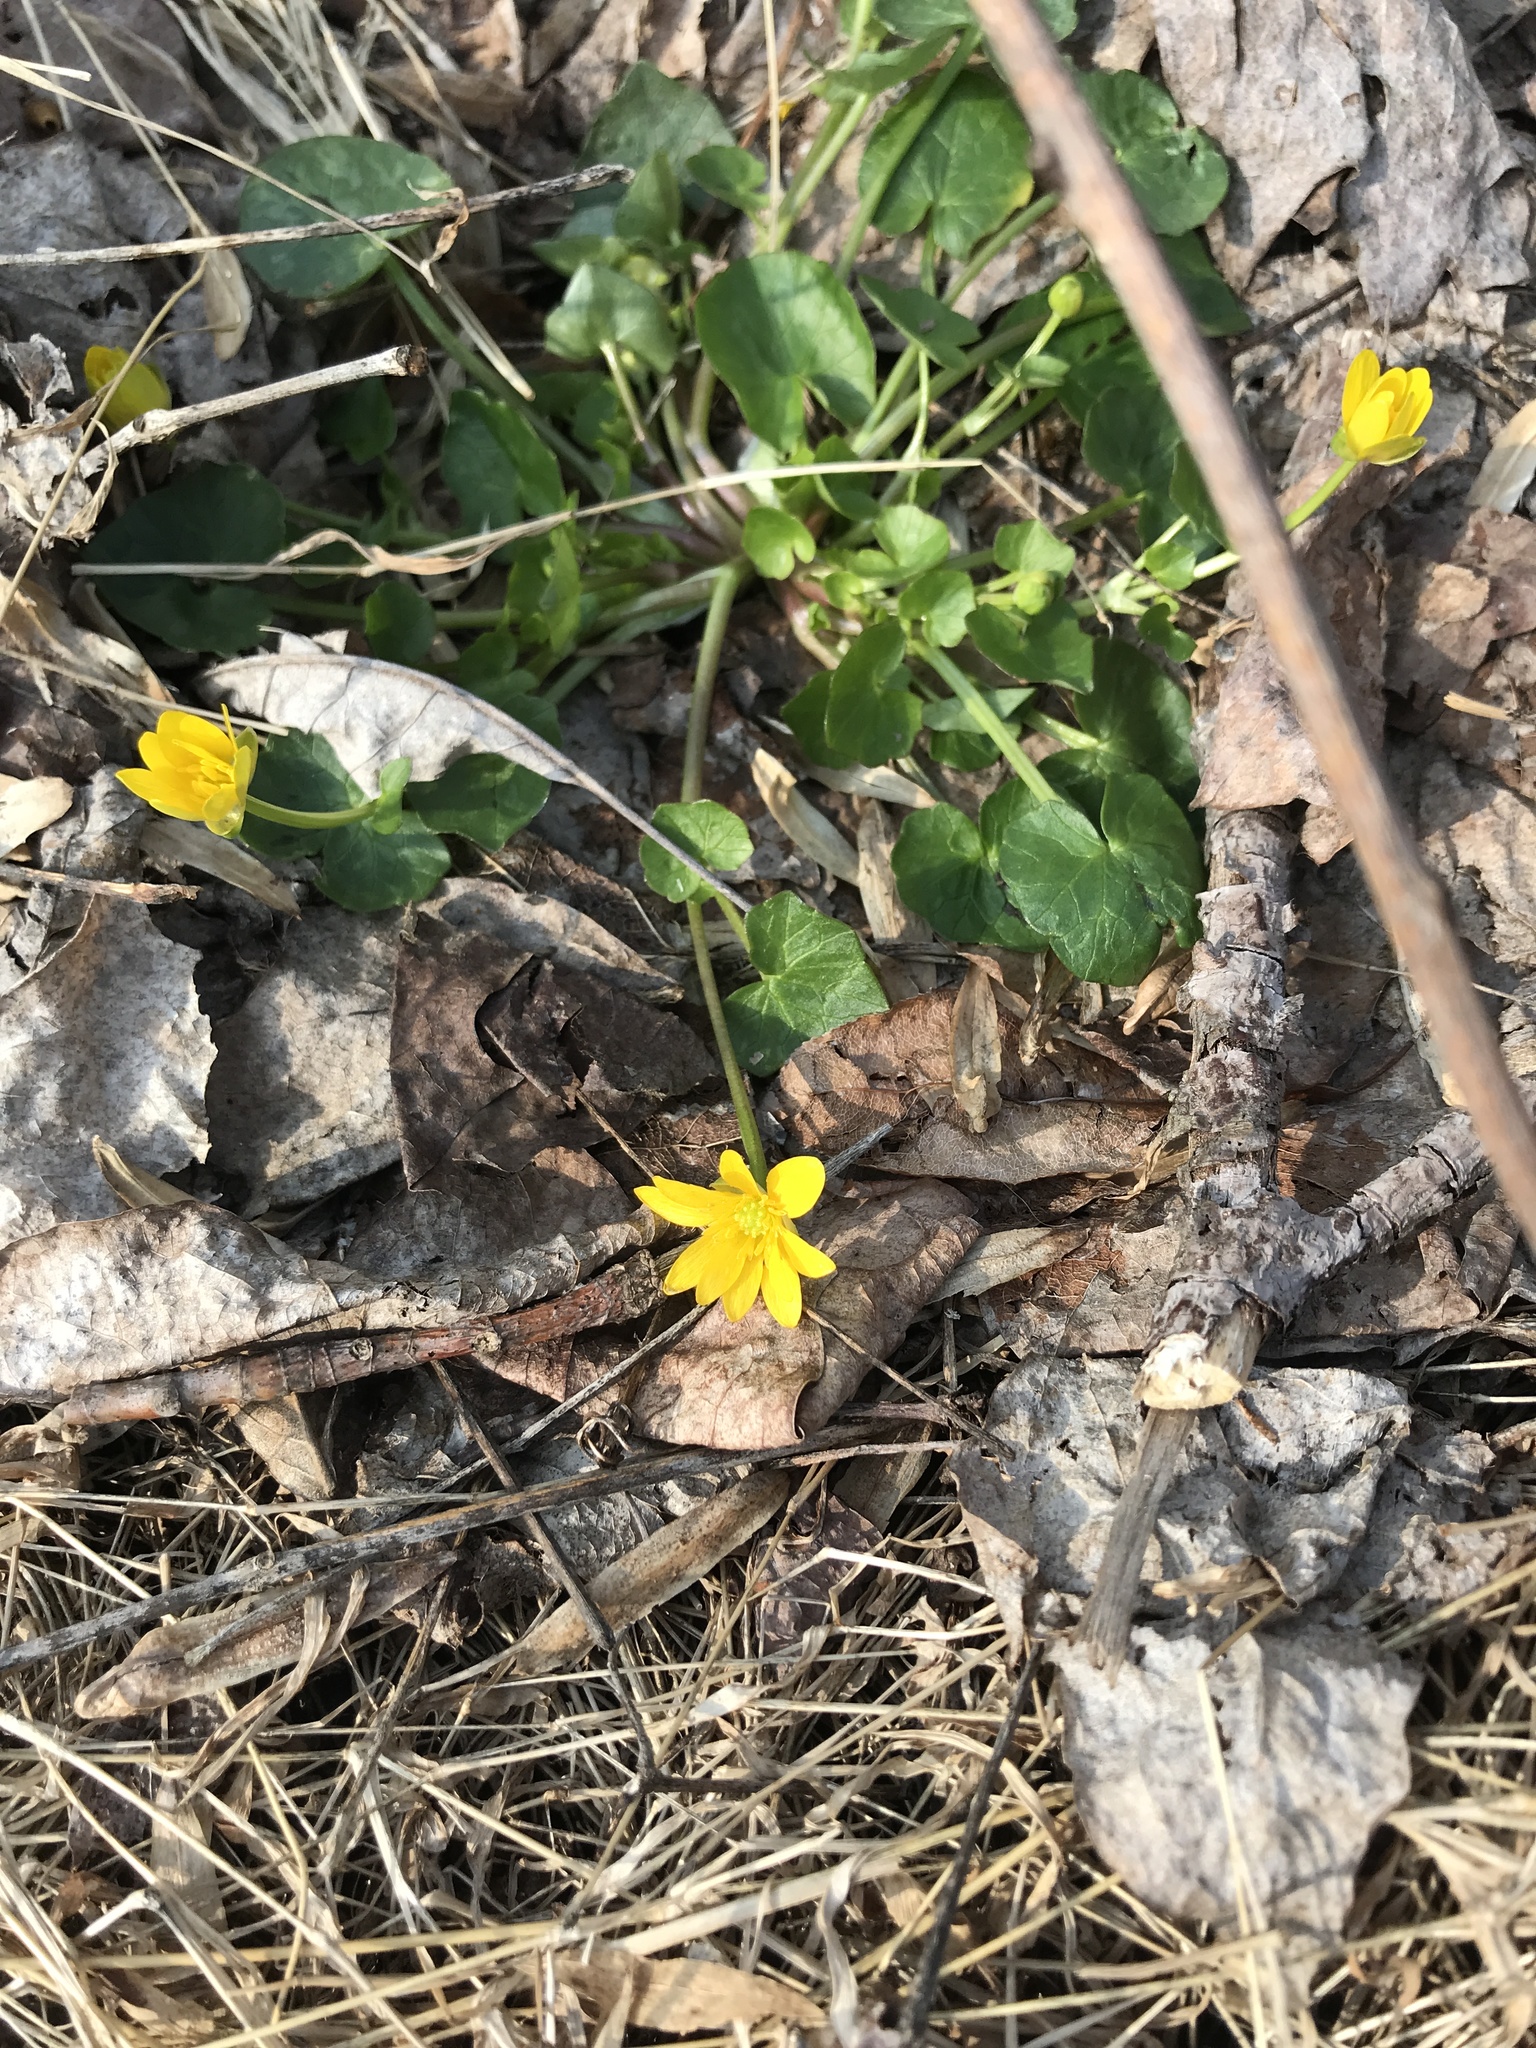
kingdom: Plantae
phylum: Tracheophyta
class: Magnoliopsida
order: Ranunculales
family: Ranunculaceae
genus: Ficaria
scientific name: Ficaria verna
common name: Lesser celandine
